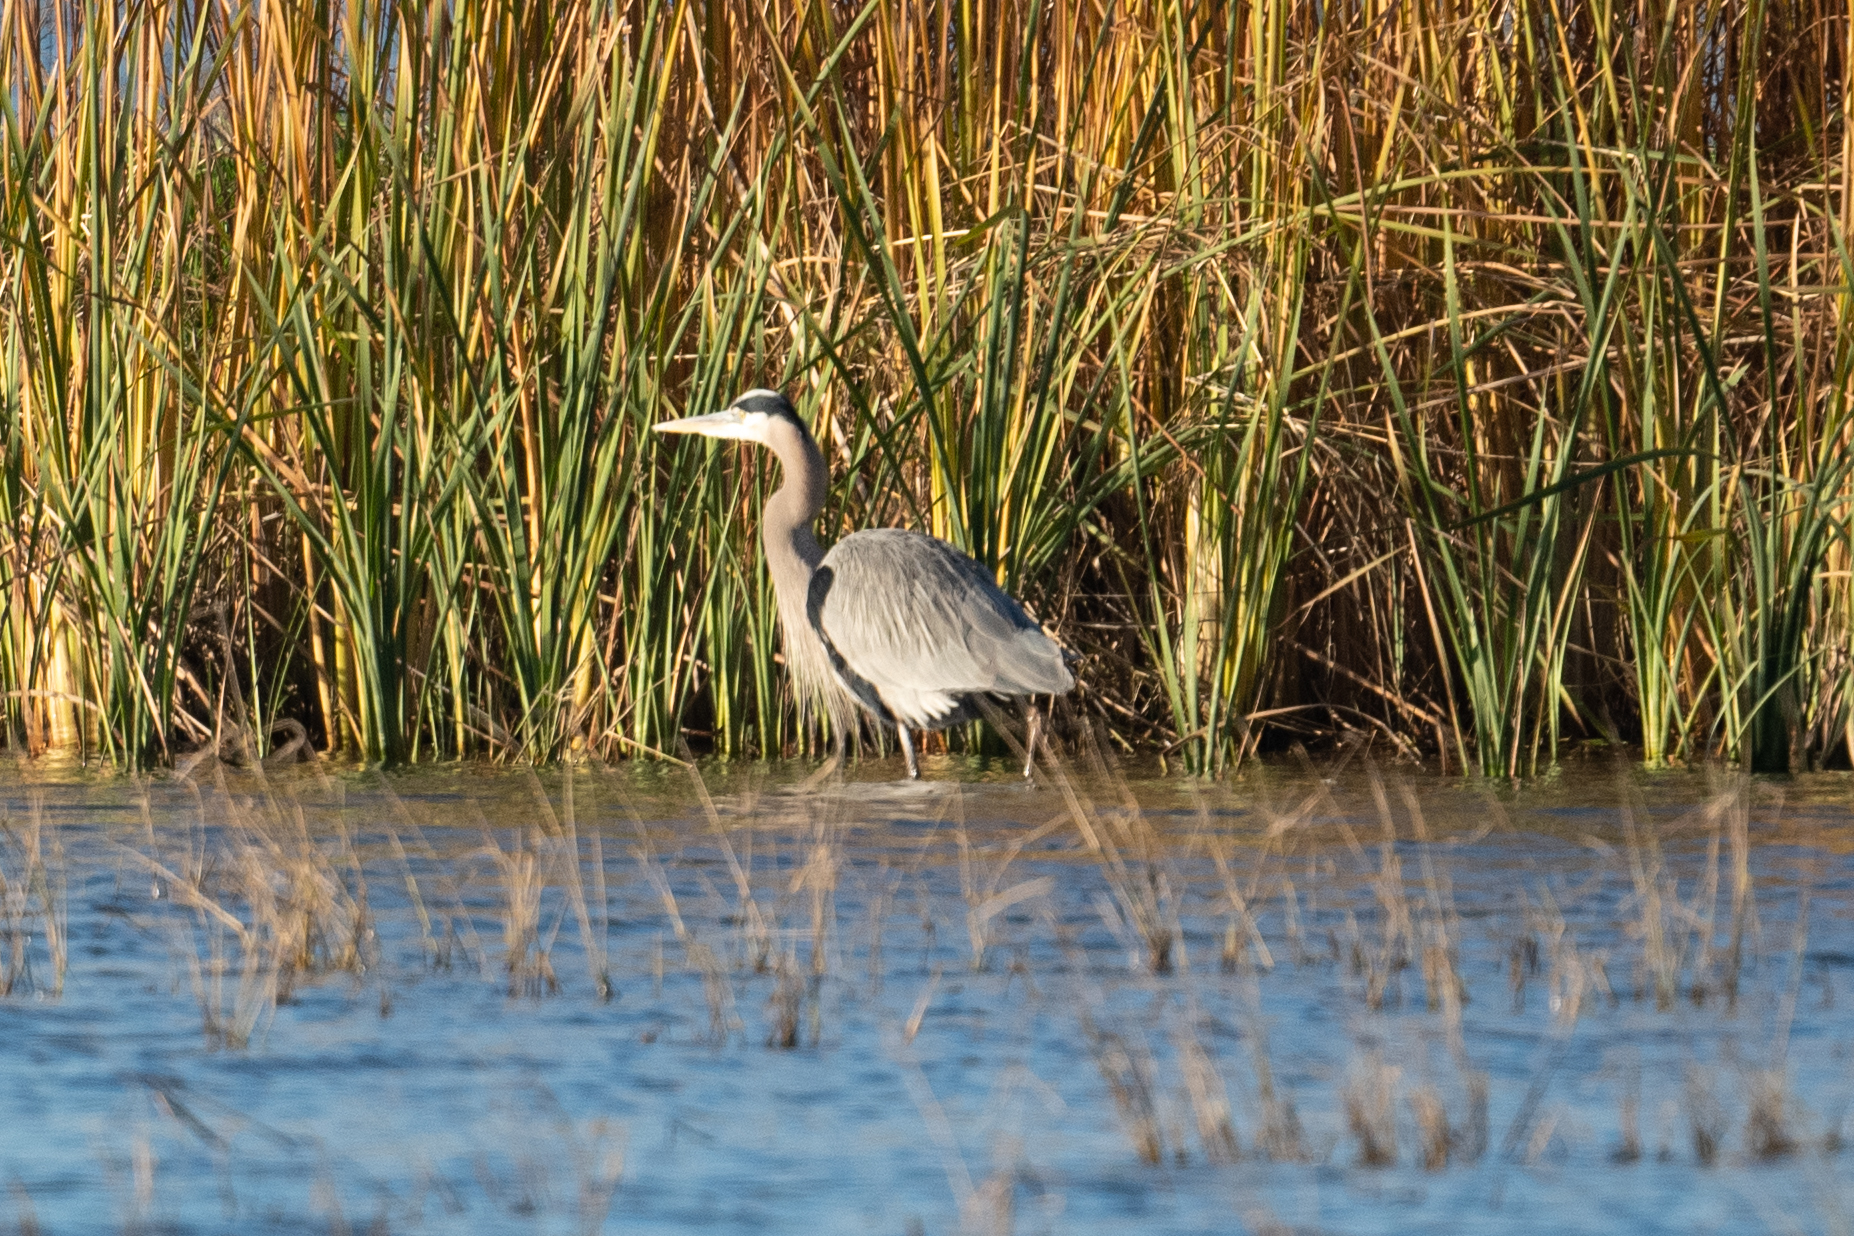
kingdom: Animalia
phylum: Chordata
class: Aves
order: Pelecaniformes
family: Ardeidae
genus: Ardea
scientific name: Ardea herodias
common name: Great blue heron
